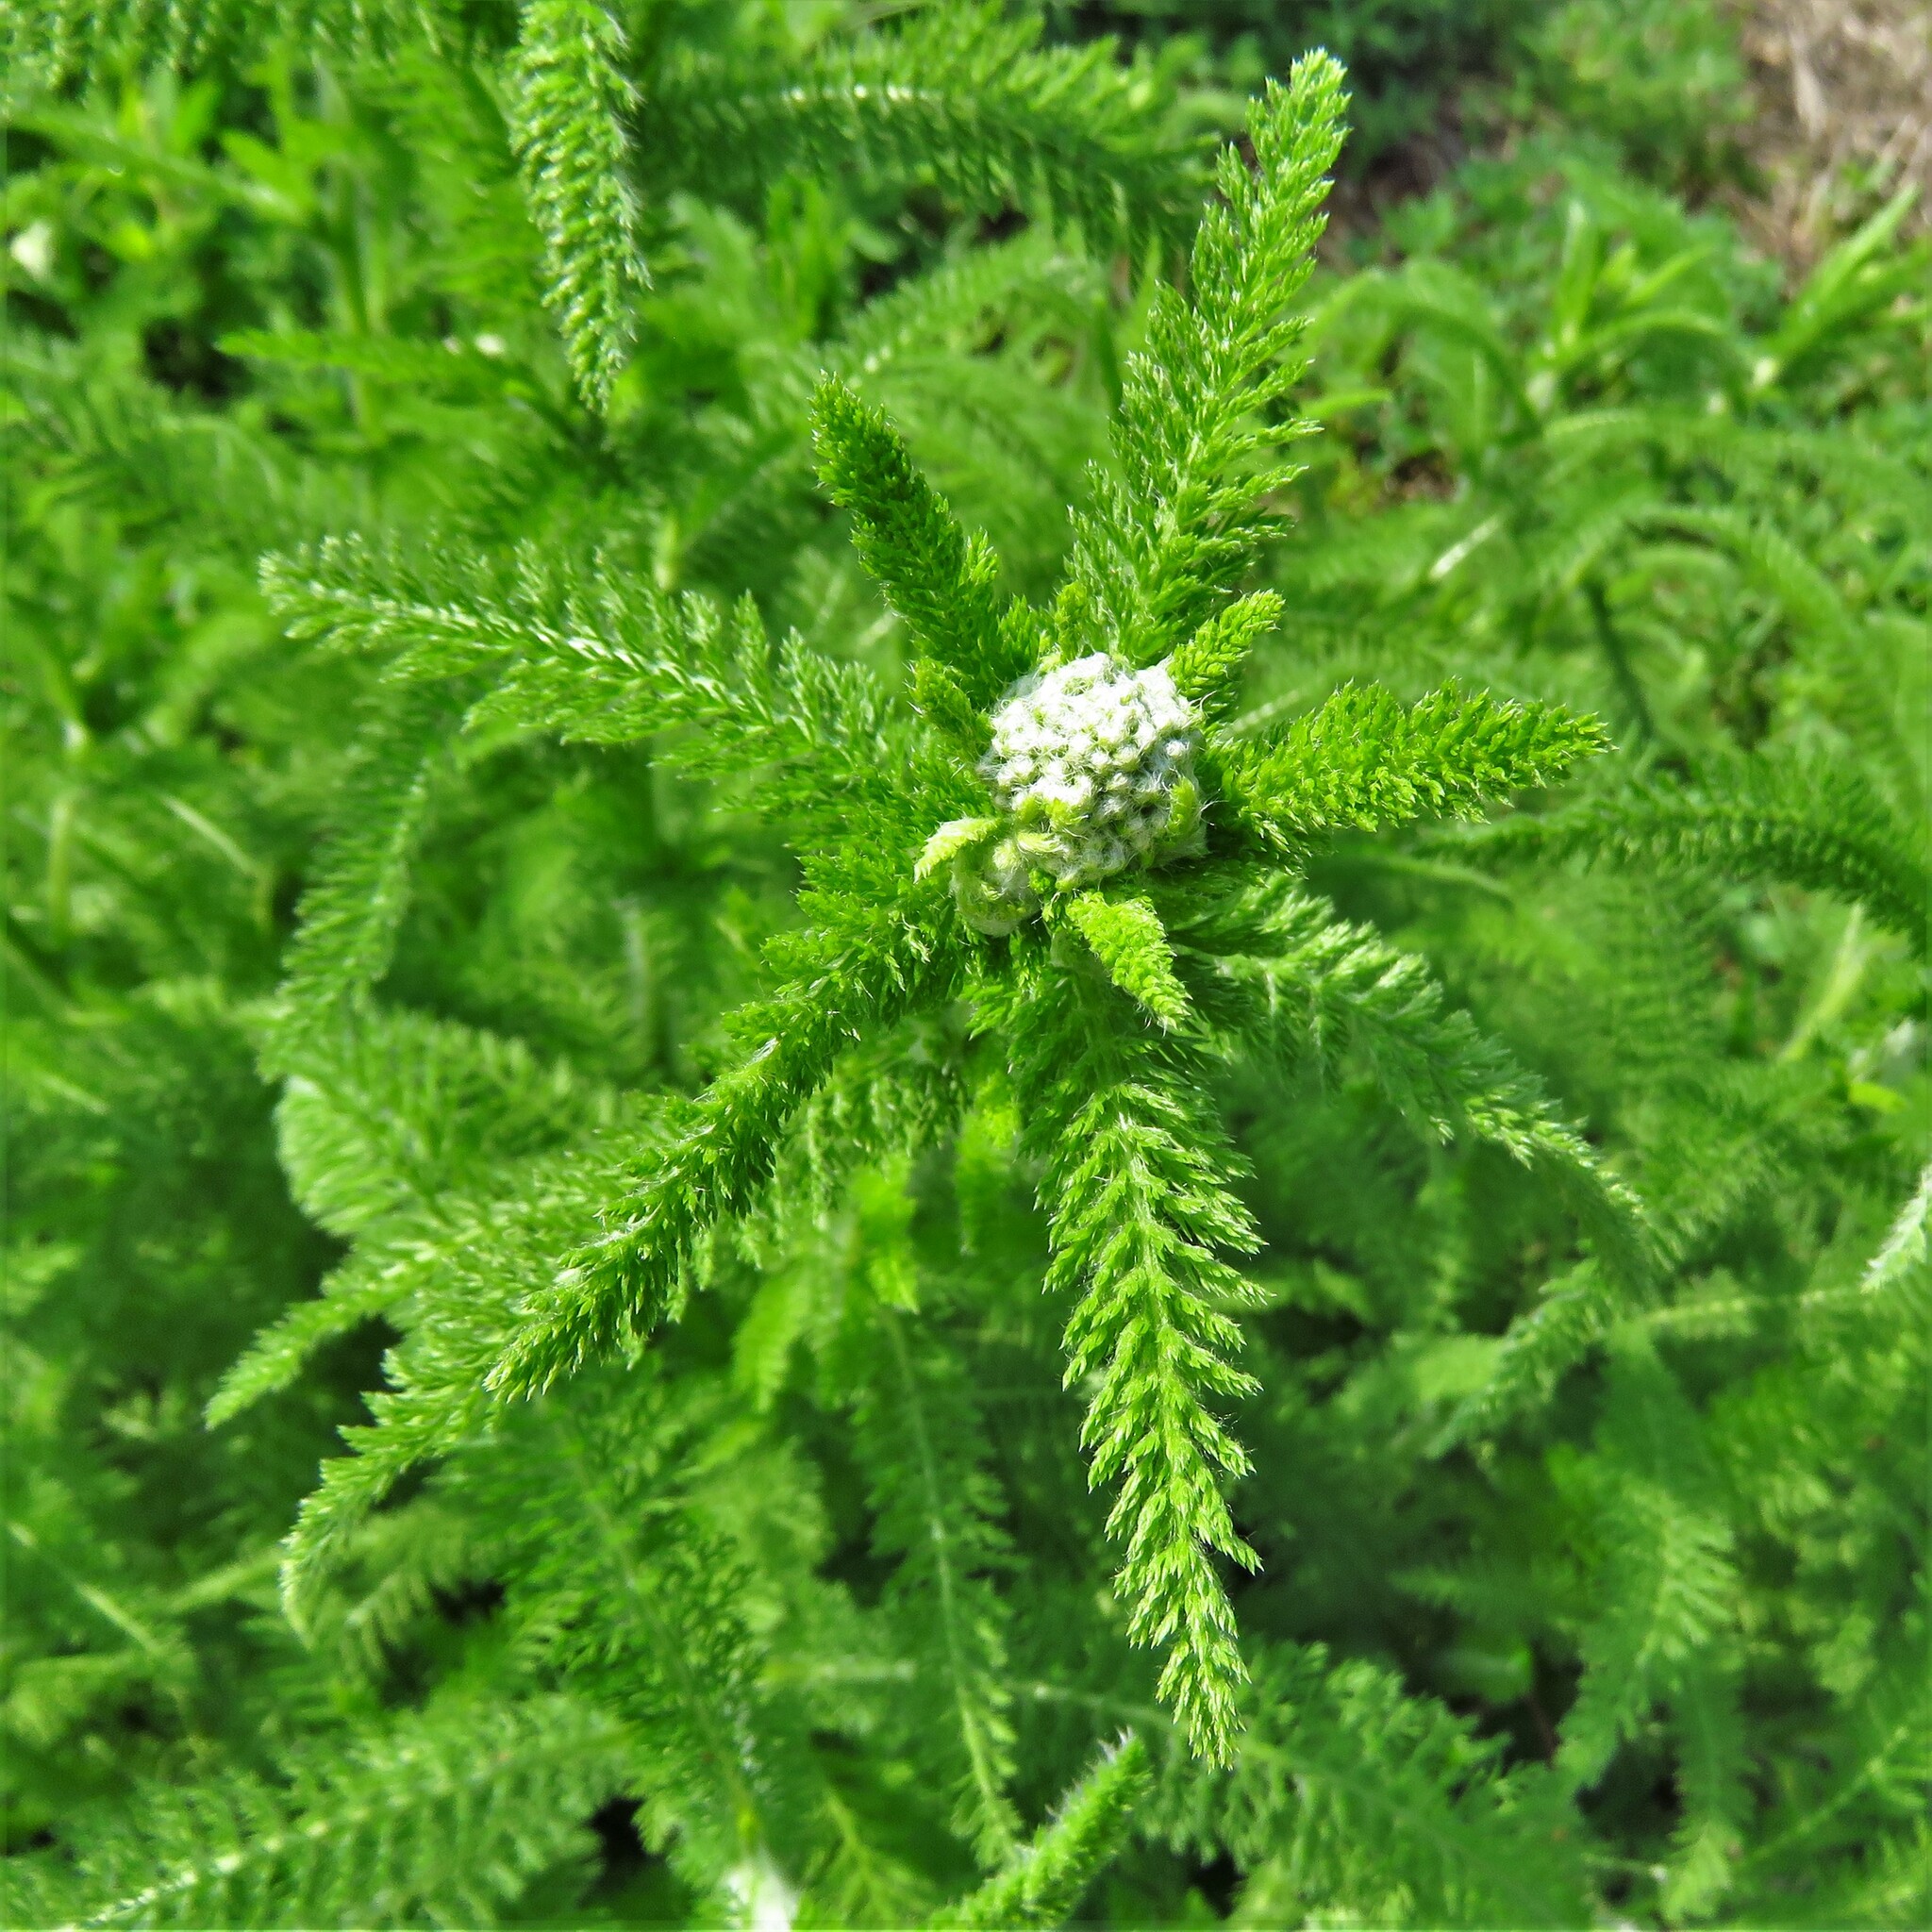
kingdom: Plantae
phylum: Tracheophyta
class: Magnoliopsida
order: Asterales
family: Asteraceae
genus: Achillea
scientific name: Achillea millefolium
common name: Yarrow
